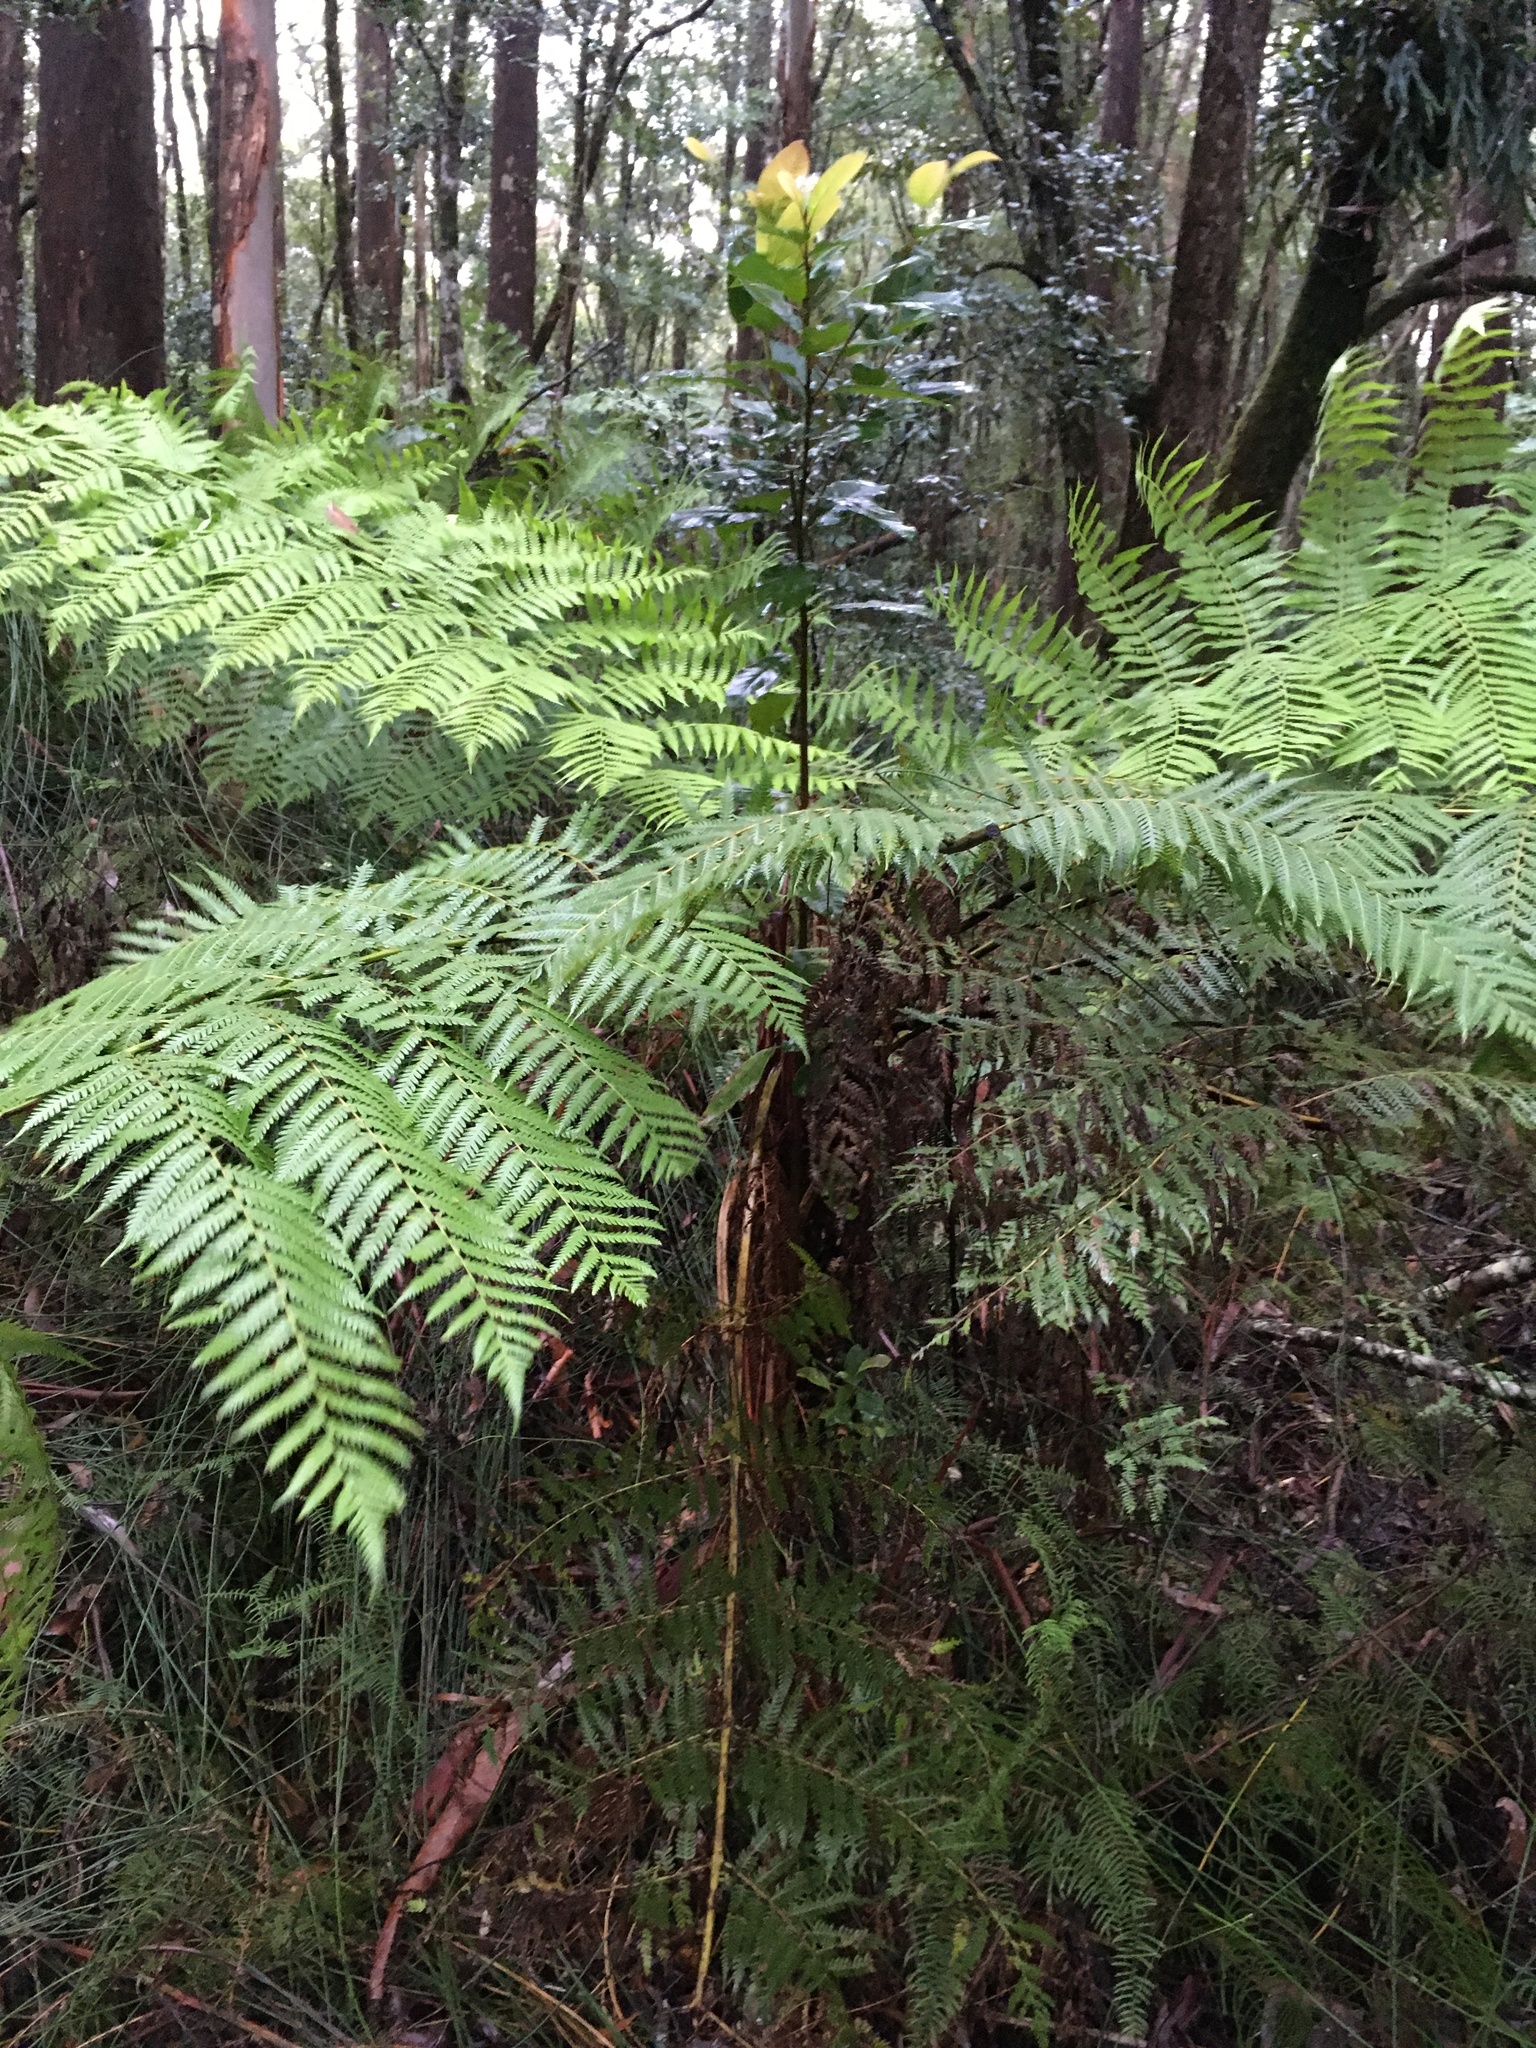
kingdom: Plantae
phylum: Tracheophyta
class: Polypodiopsida
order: Cyatheales
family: Cyatheaceae
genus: Alsophila
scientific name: Alsophila australis
